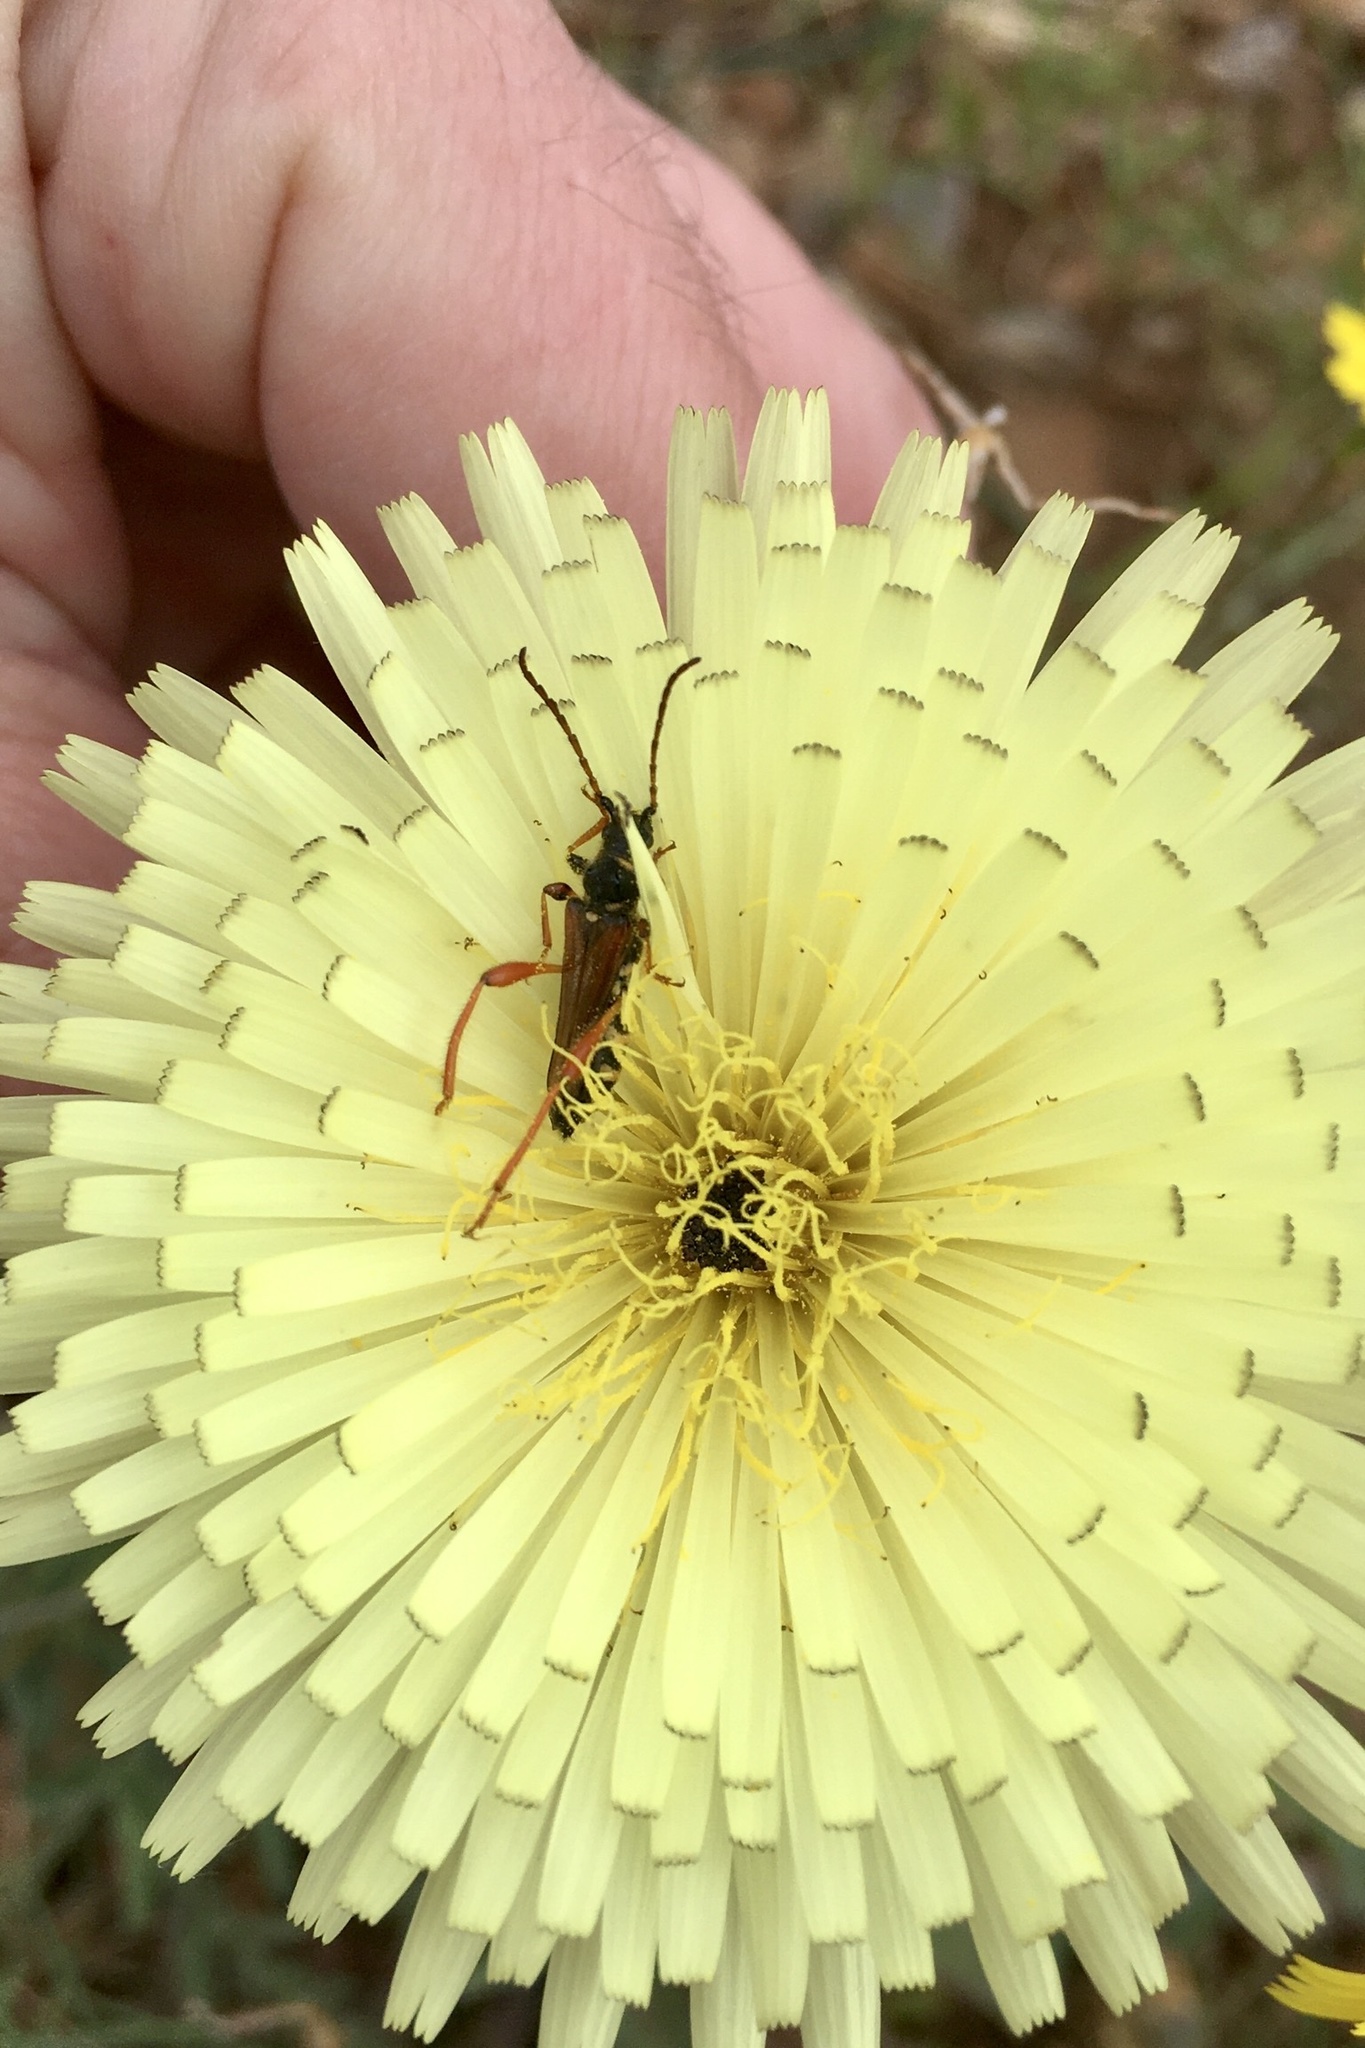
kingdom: Animalia
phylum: Arthropoda
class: Insecta
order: Coleoptera
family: Cerambycidae
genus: Stenopterus
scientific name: Stenopterus rufus
